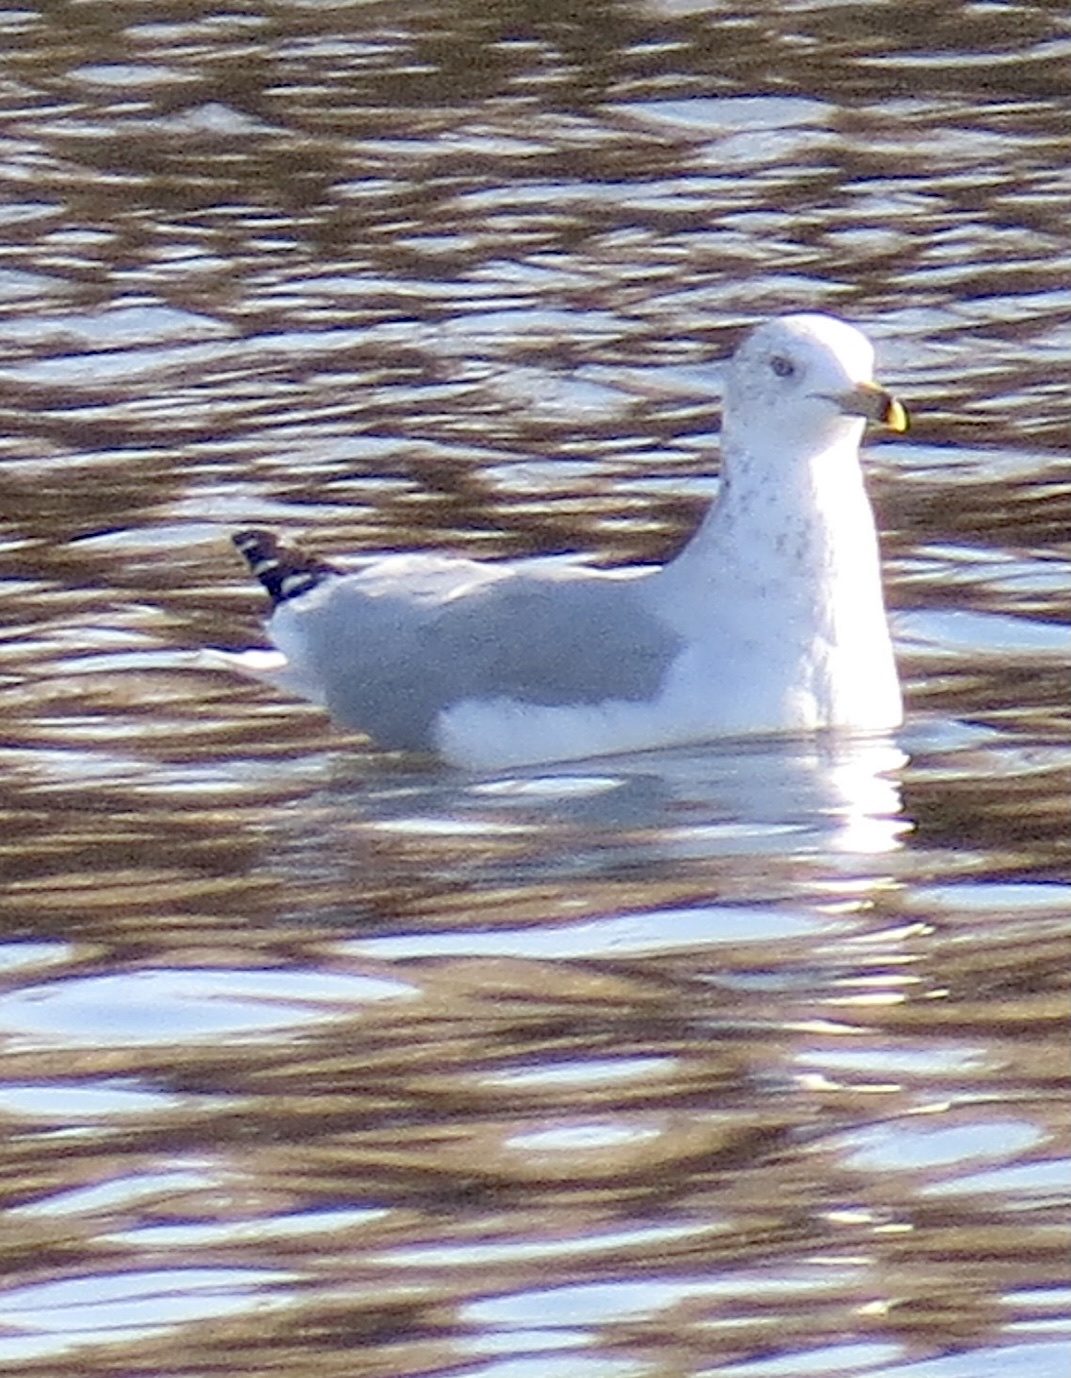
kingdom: Animalia
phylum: Chordata
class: Aves
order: Charadriiformes
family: Laridae
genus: Larus
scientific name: Larus delawarensis
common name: Ring-billed gull
